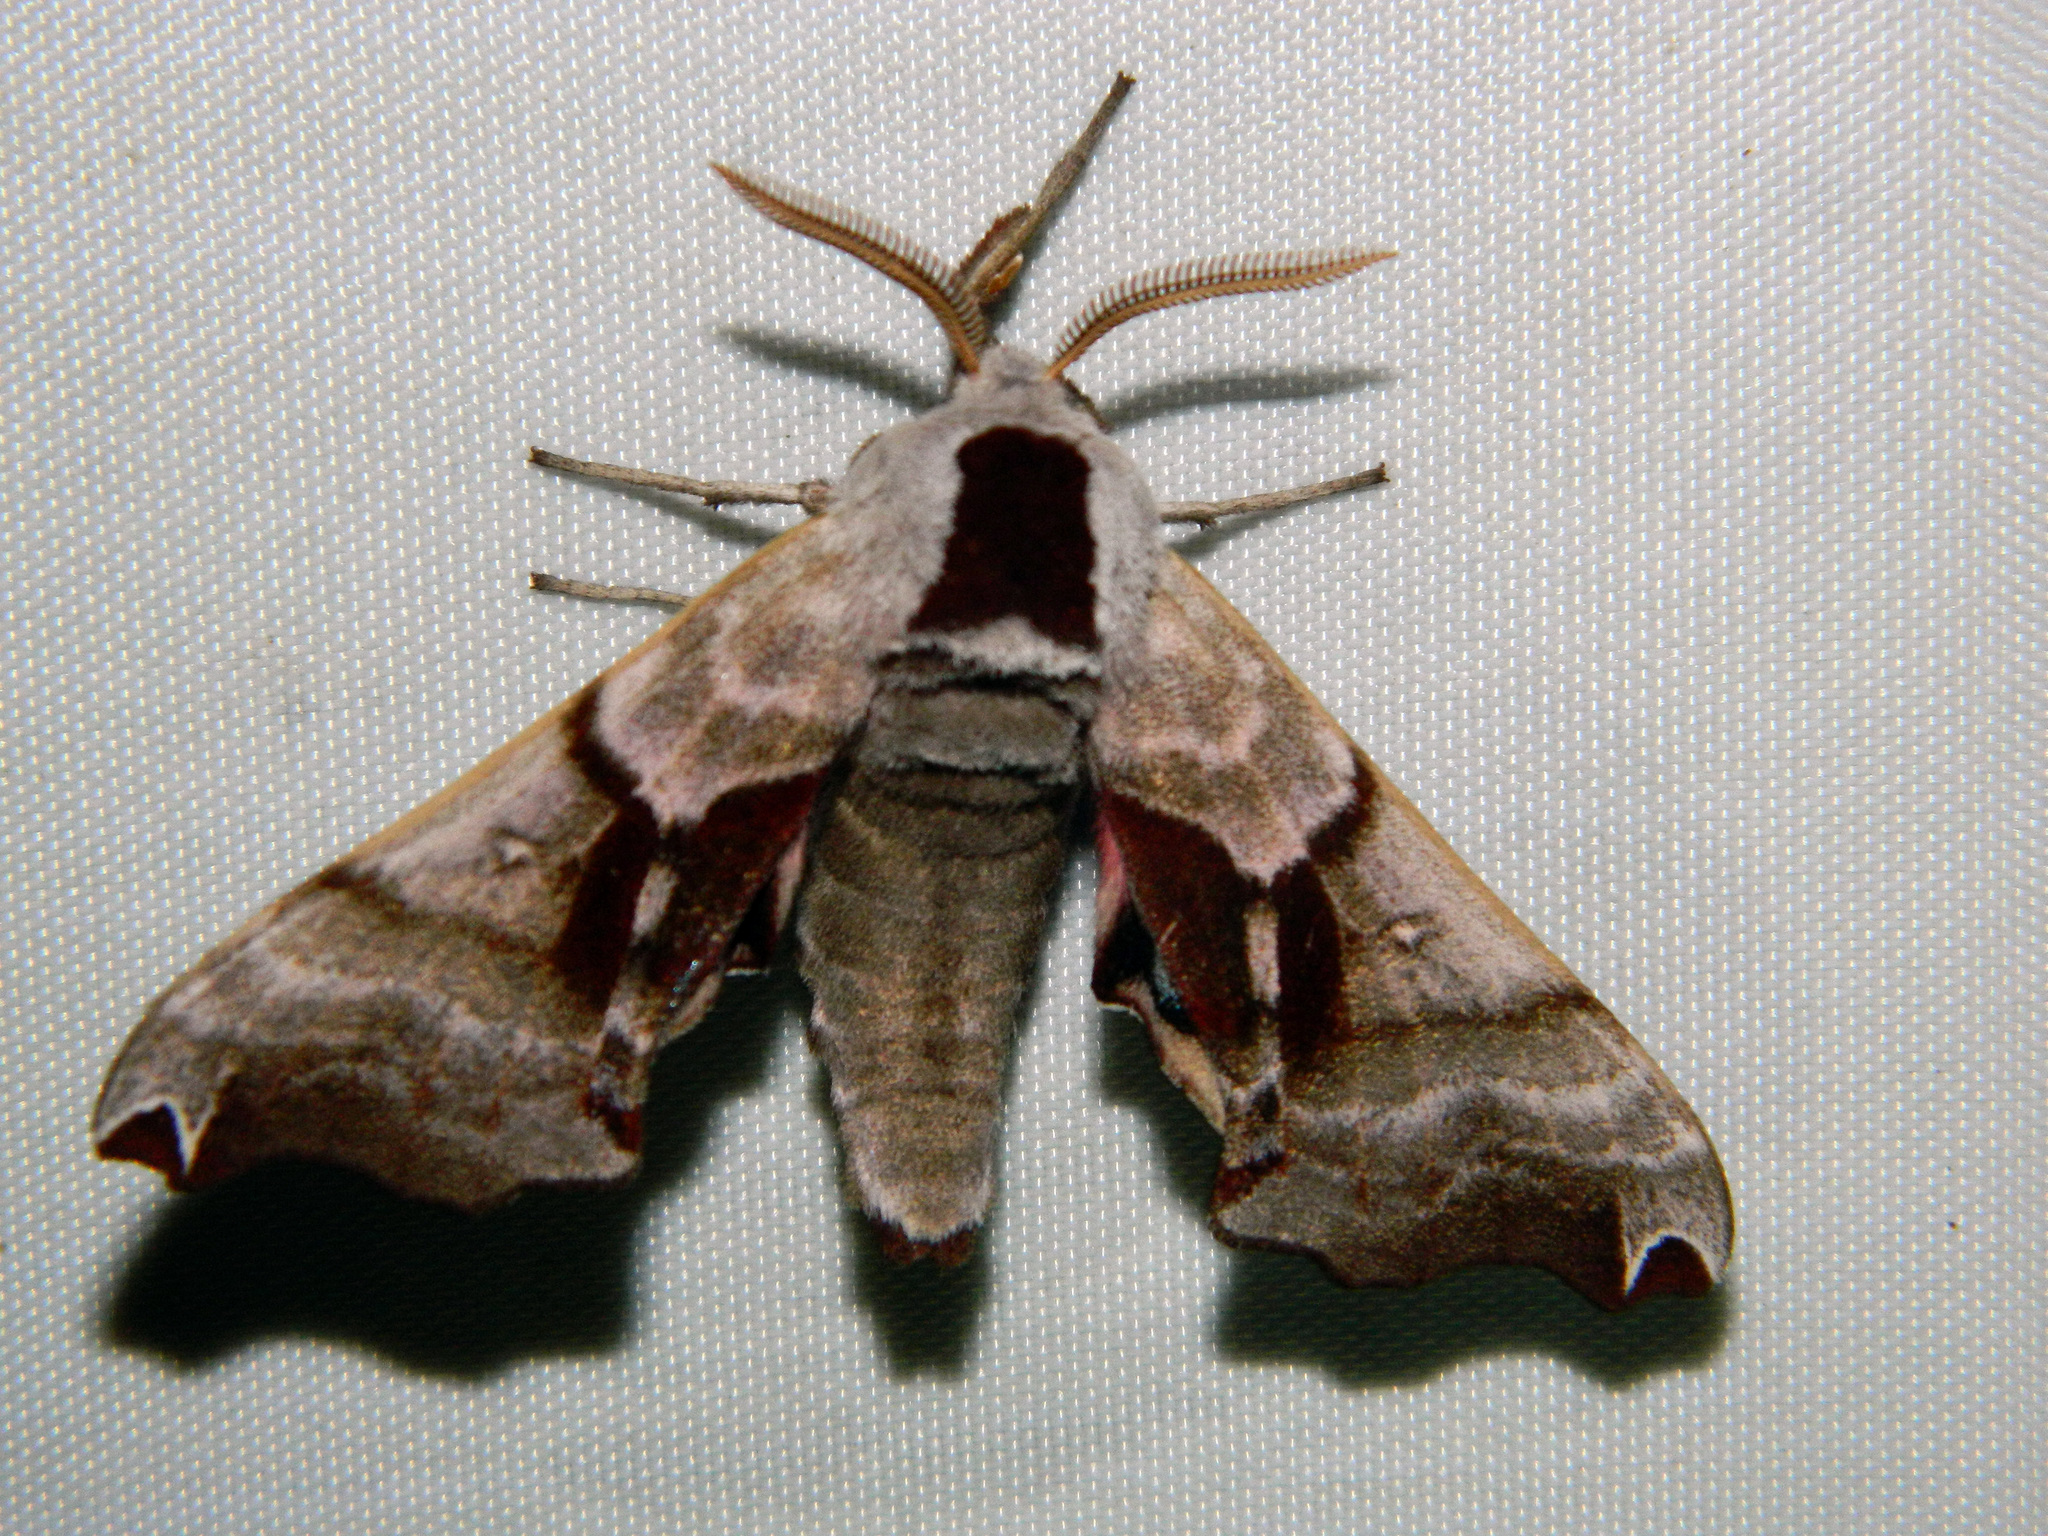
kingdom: Animalia
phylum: Arthropoda
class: Insecta
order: Lepidoptera
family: Sphingidae
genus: Smerinthus
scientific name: Smerinthus jamaicensis
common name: Twin spotted sphinx
